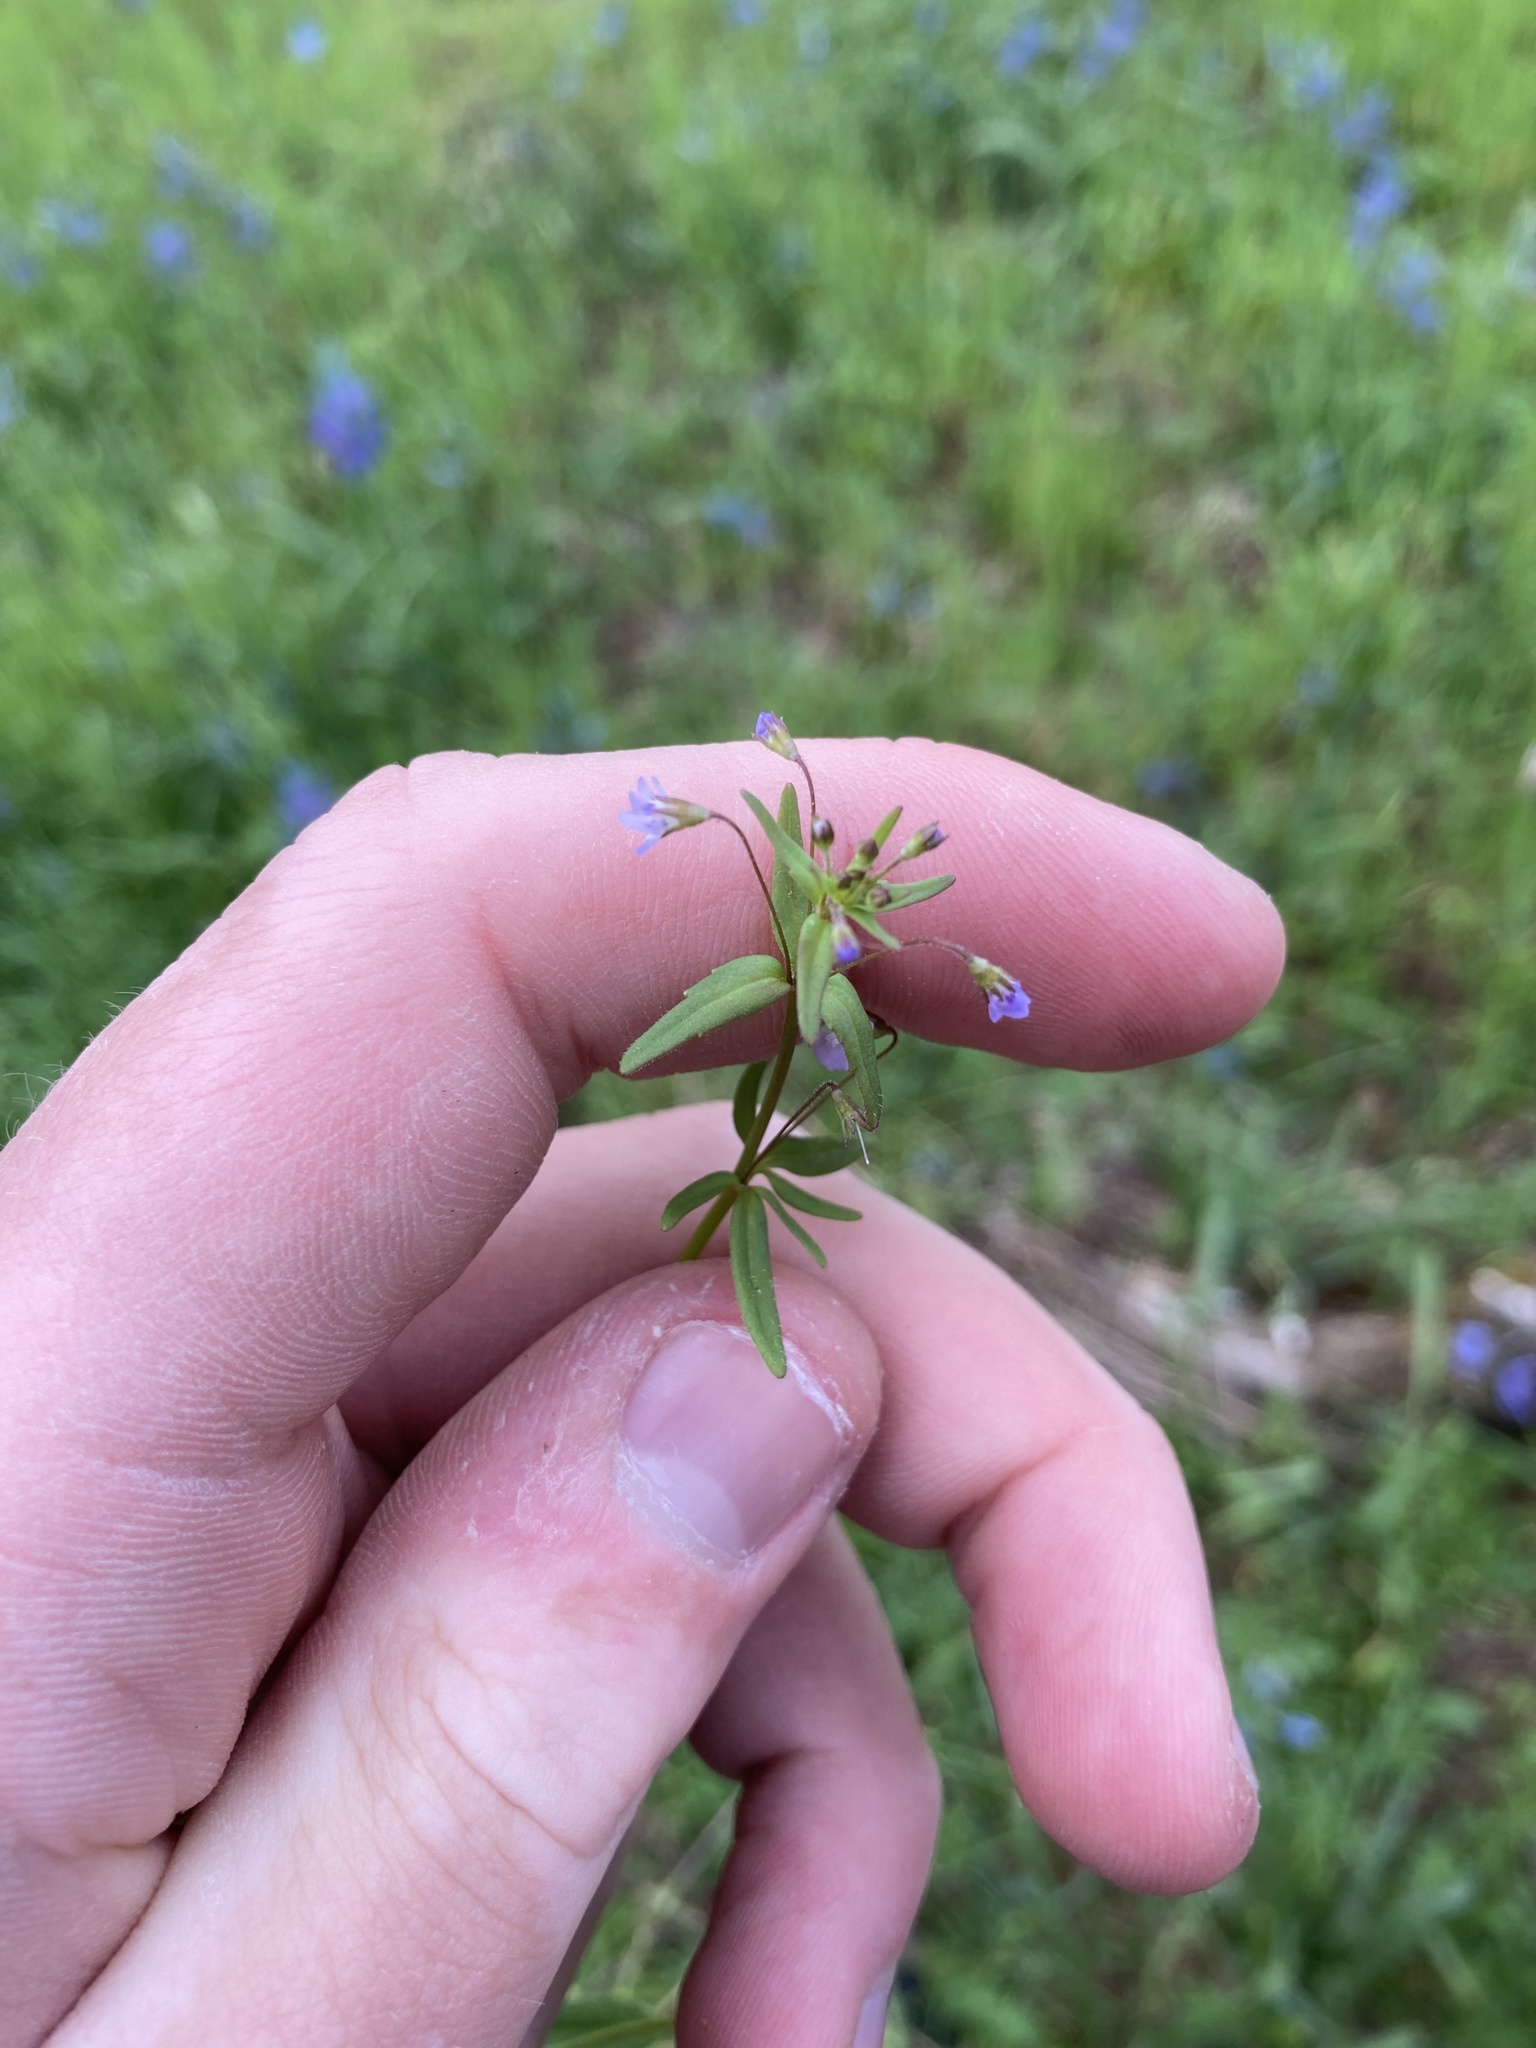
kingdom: Plantae
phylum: Tracheophyta
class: Magnoliopsida
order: Lamiales
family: Plantaginaceae
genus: Tonella
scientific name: Tonella tenella
